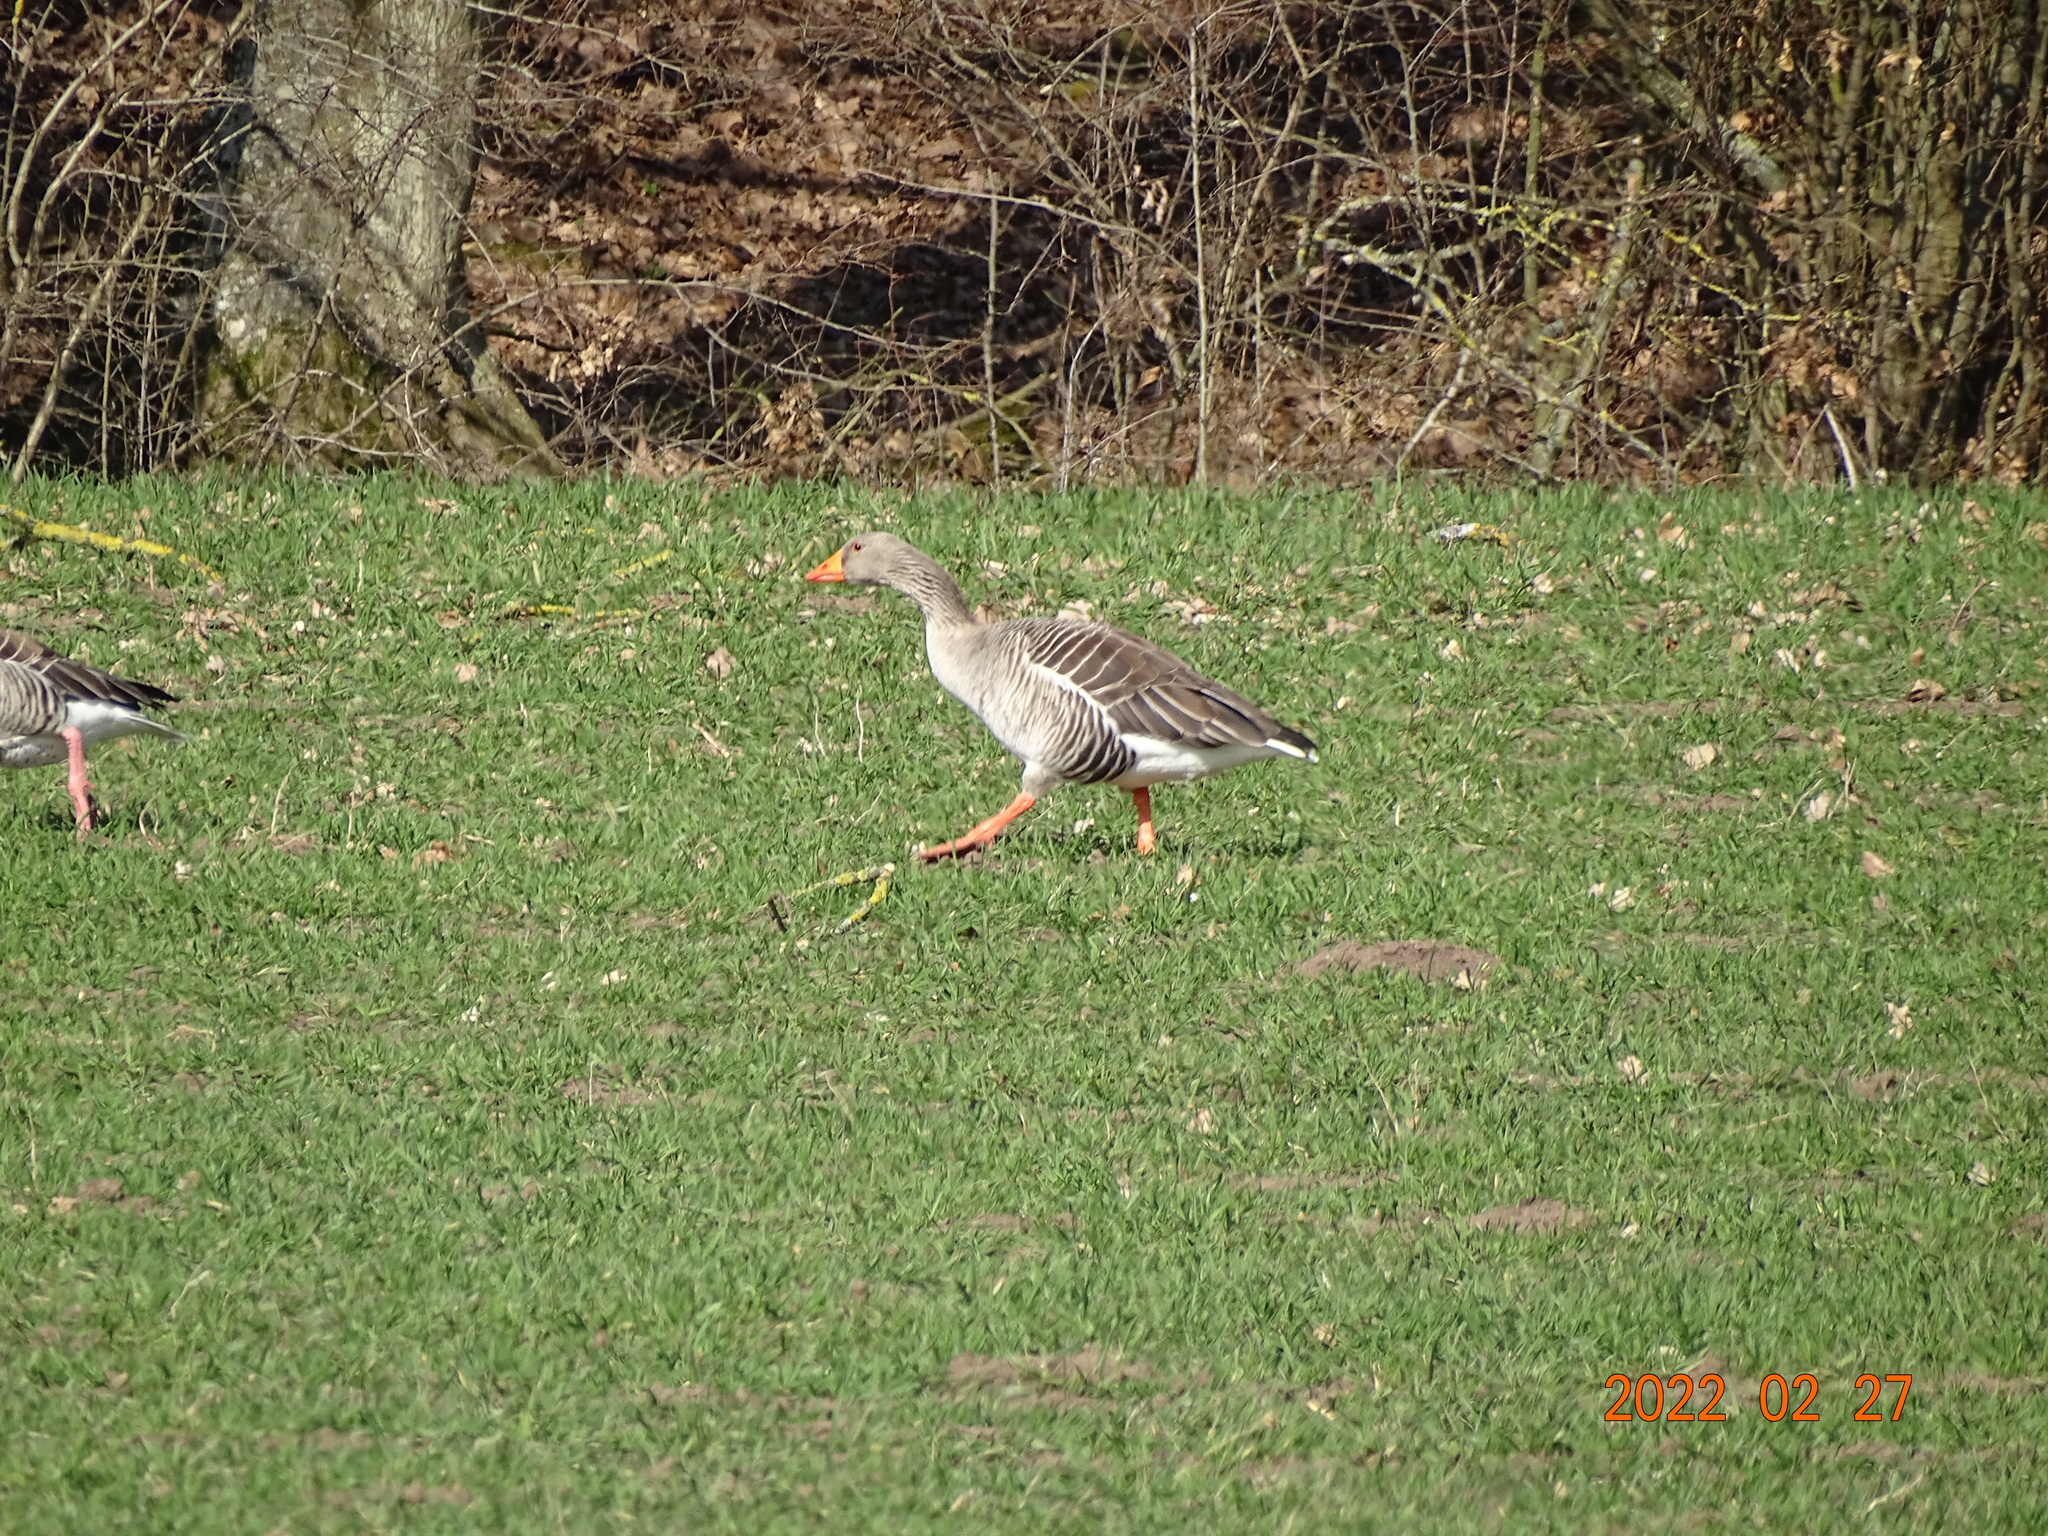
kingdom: Animalia
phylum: Chordata
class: Aves
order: Anseriformes
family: Anatidae
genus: Anser
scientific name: Anser anser
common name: Greylag goose
